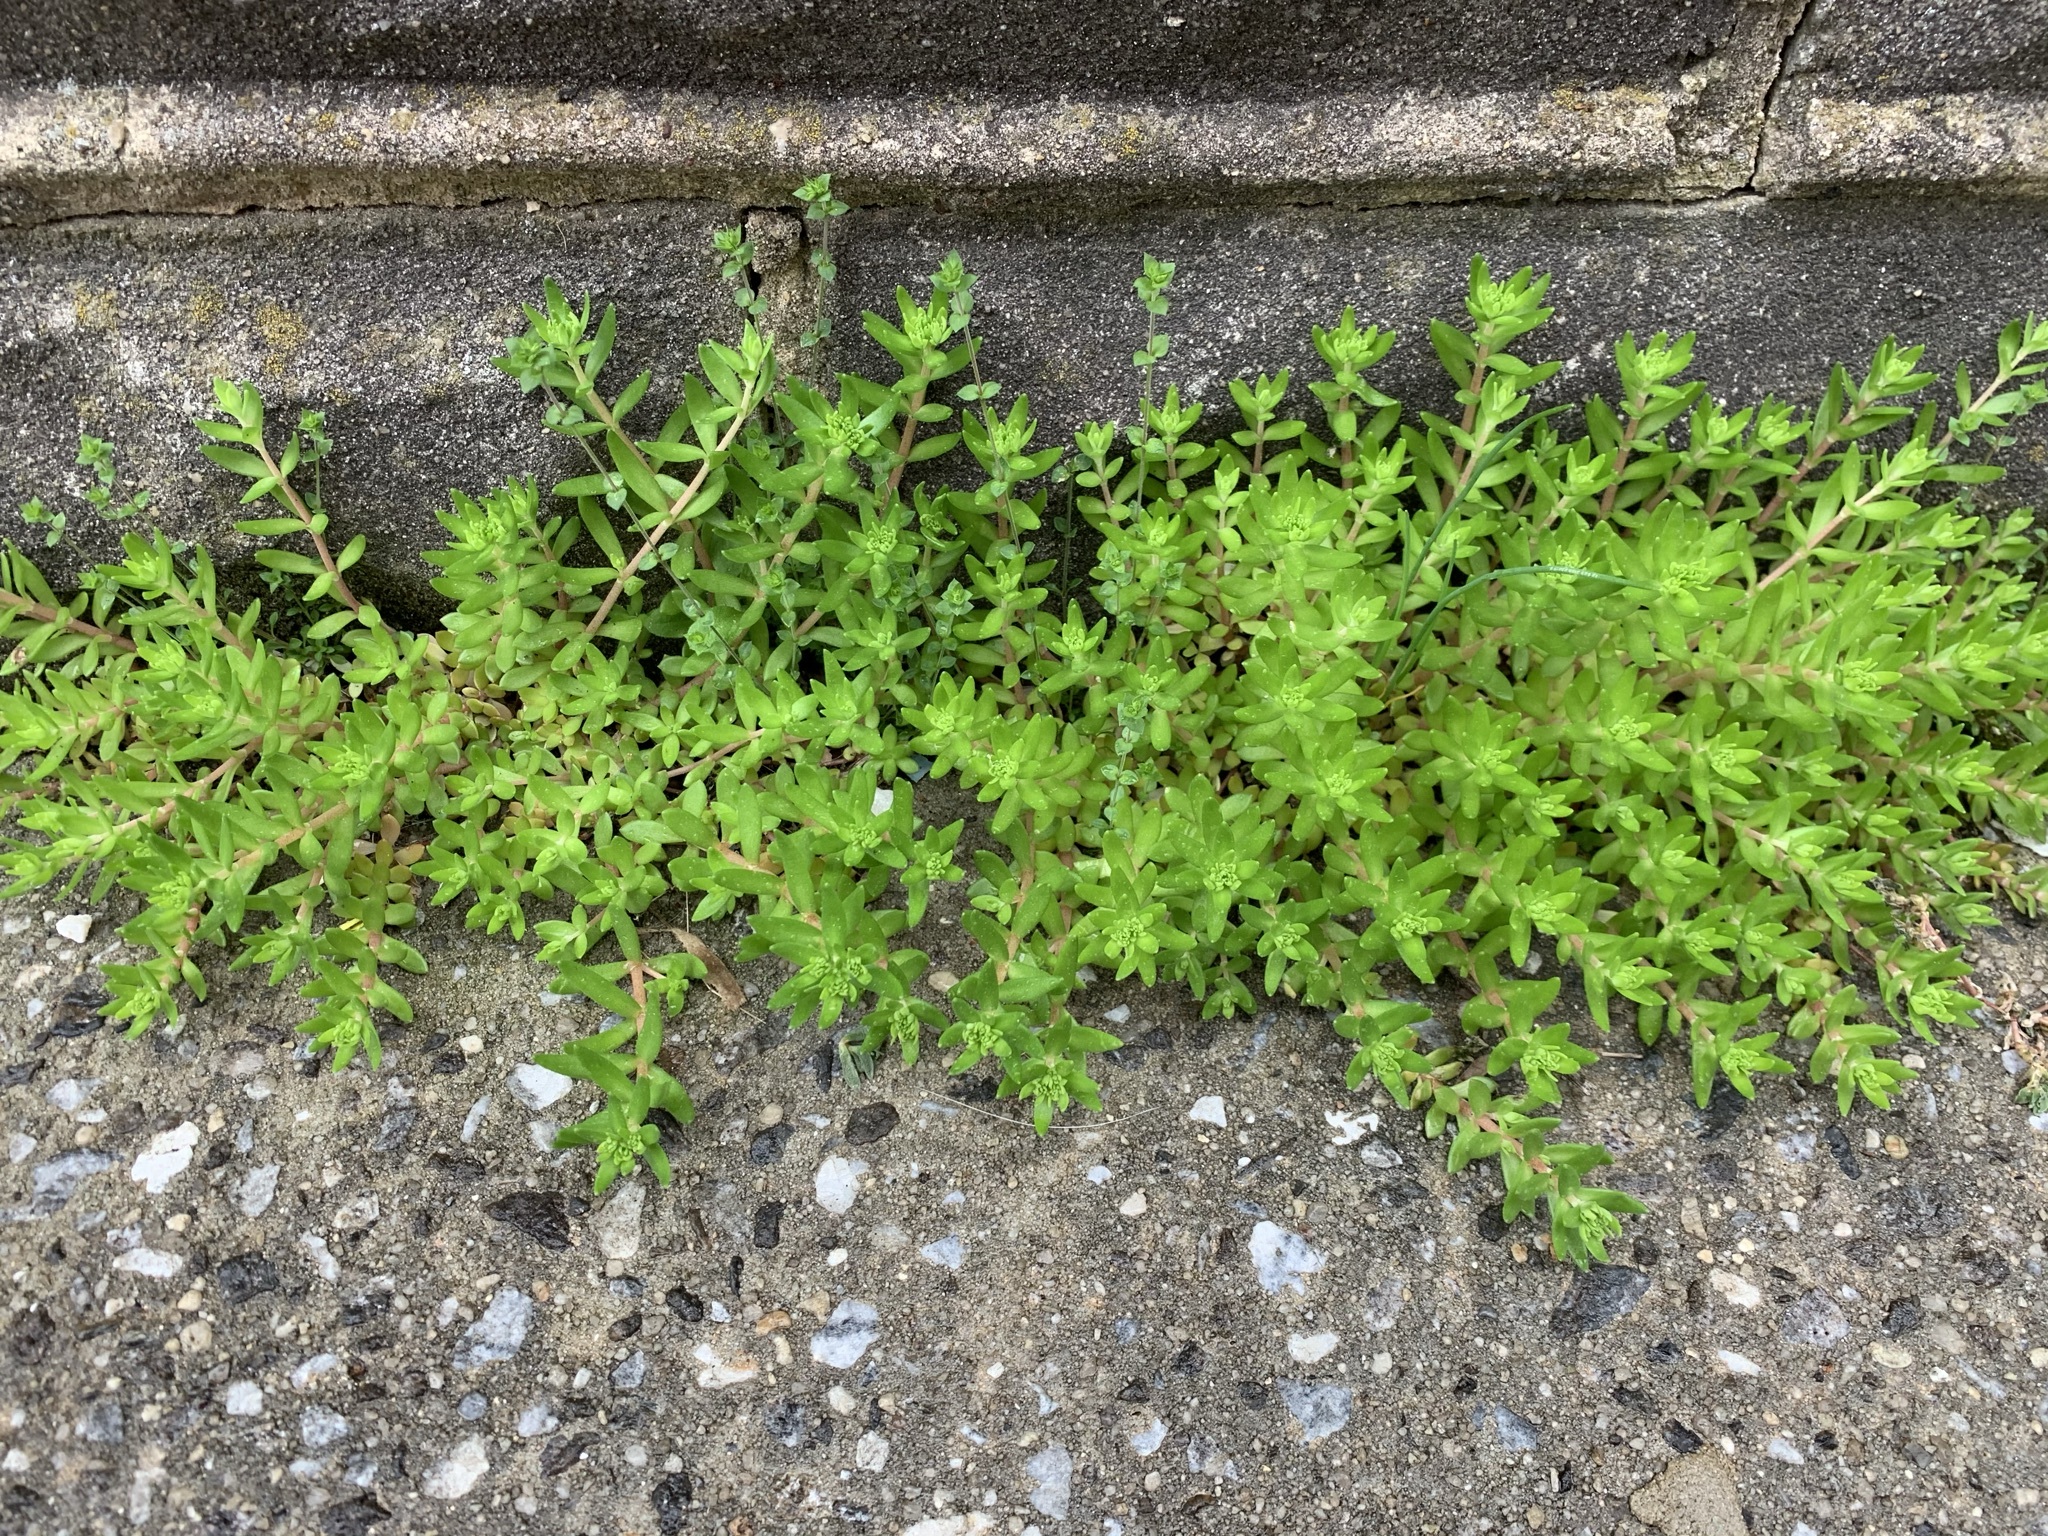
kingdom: Plantae
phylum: Tracheophyta
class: Magnoliopsida
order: Saxifragales
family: Crassulaceae
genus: Sedum
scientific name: Sedum sarmentosum
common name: Stringy stonecrop
